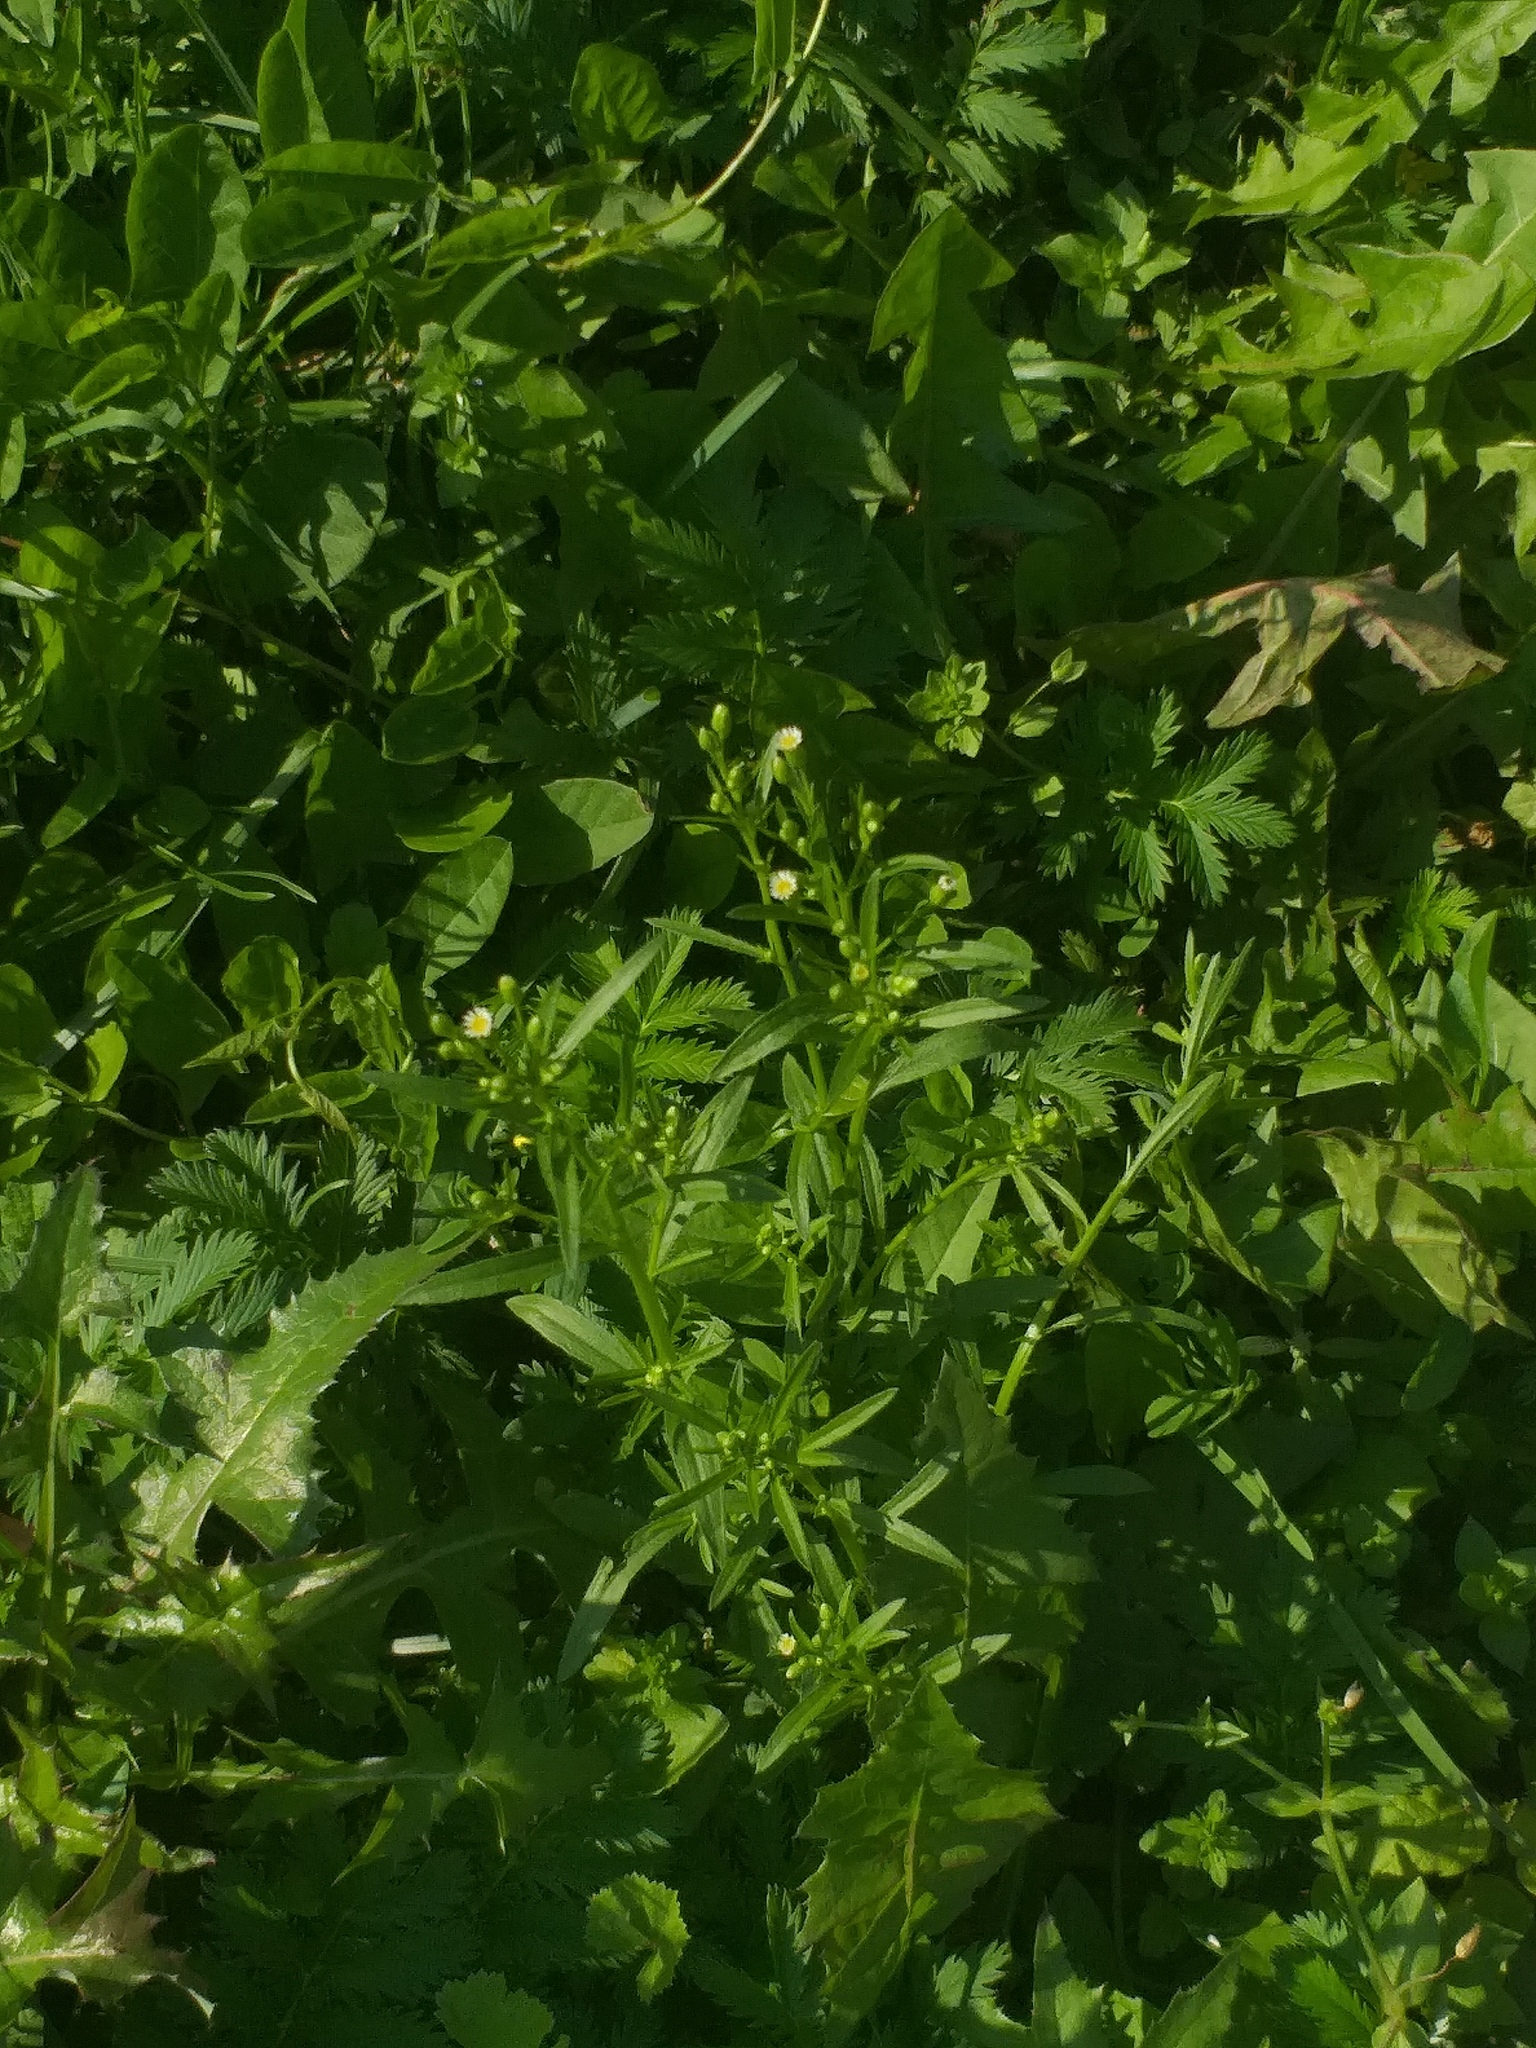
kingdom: Plantae
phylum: Tracheophyta
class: Magnoliopsida
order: Asterales
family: Asteraceae
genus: Erigeron
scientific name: Erigeron canadensis
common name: Canadian fleabane
